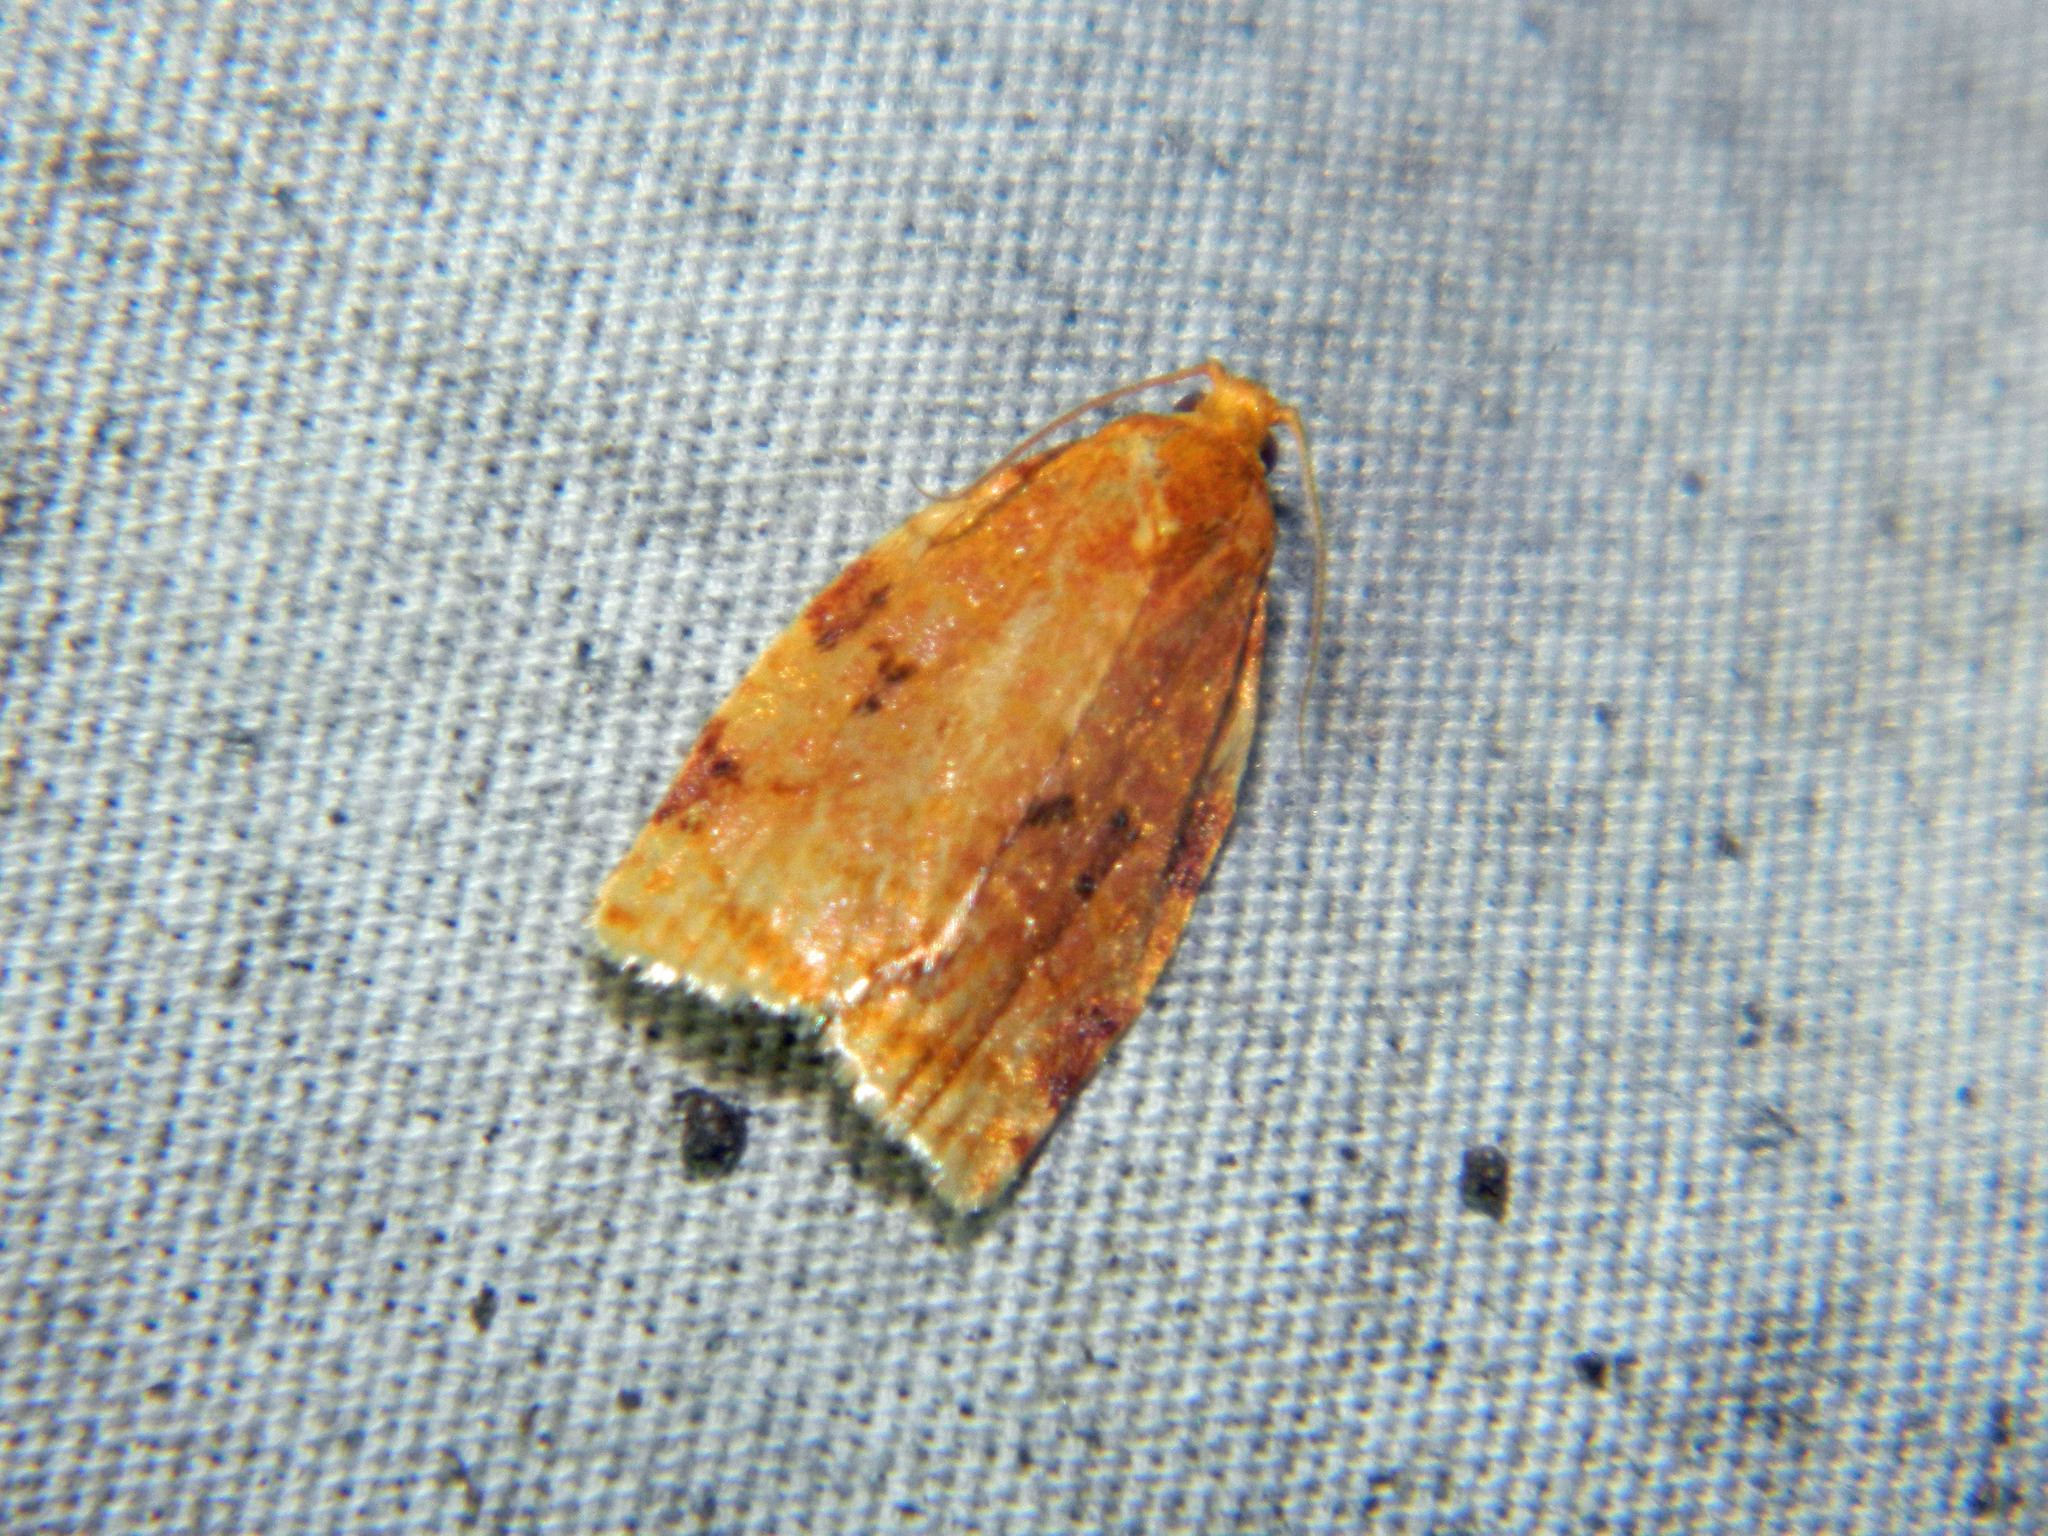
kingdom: Animalia
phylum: Arthropoda
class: Insecta
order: Lepidoptera
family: Tortricidae
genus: Archips
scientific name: Archips cerasivorana
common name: Uglynest caterpillar
